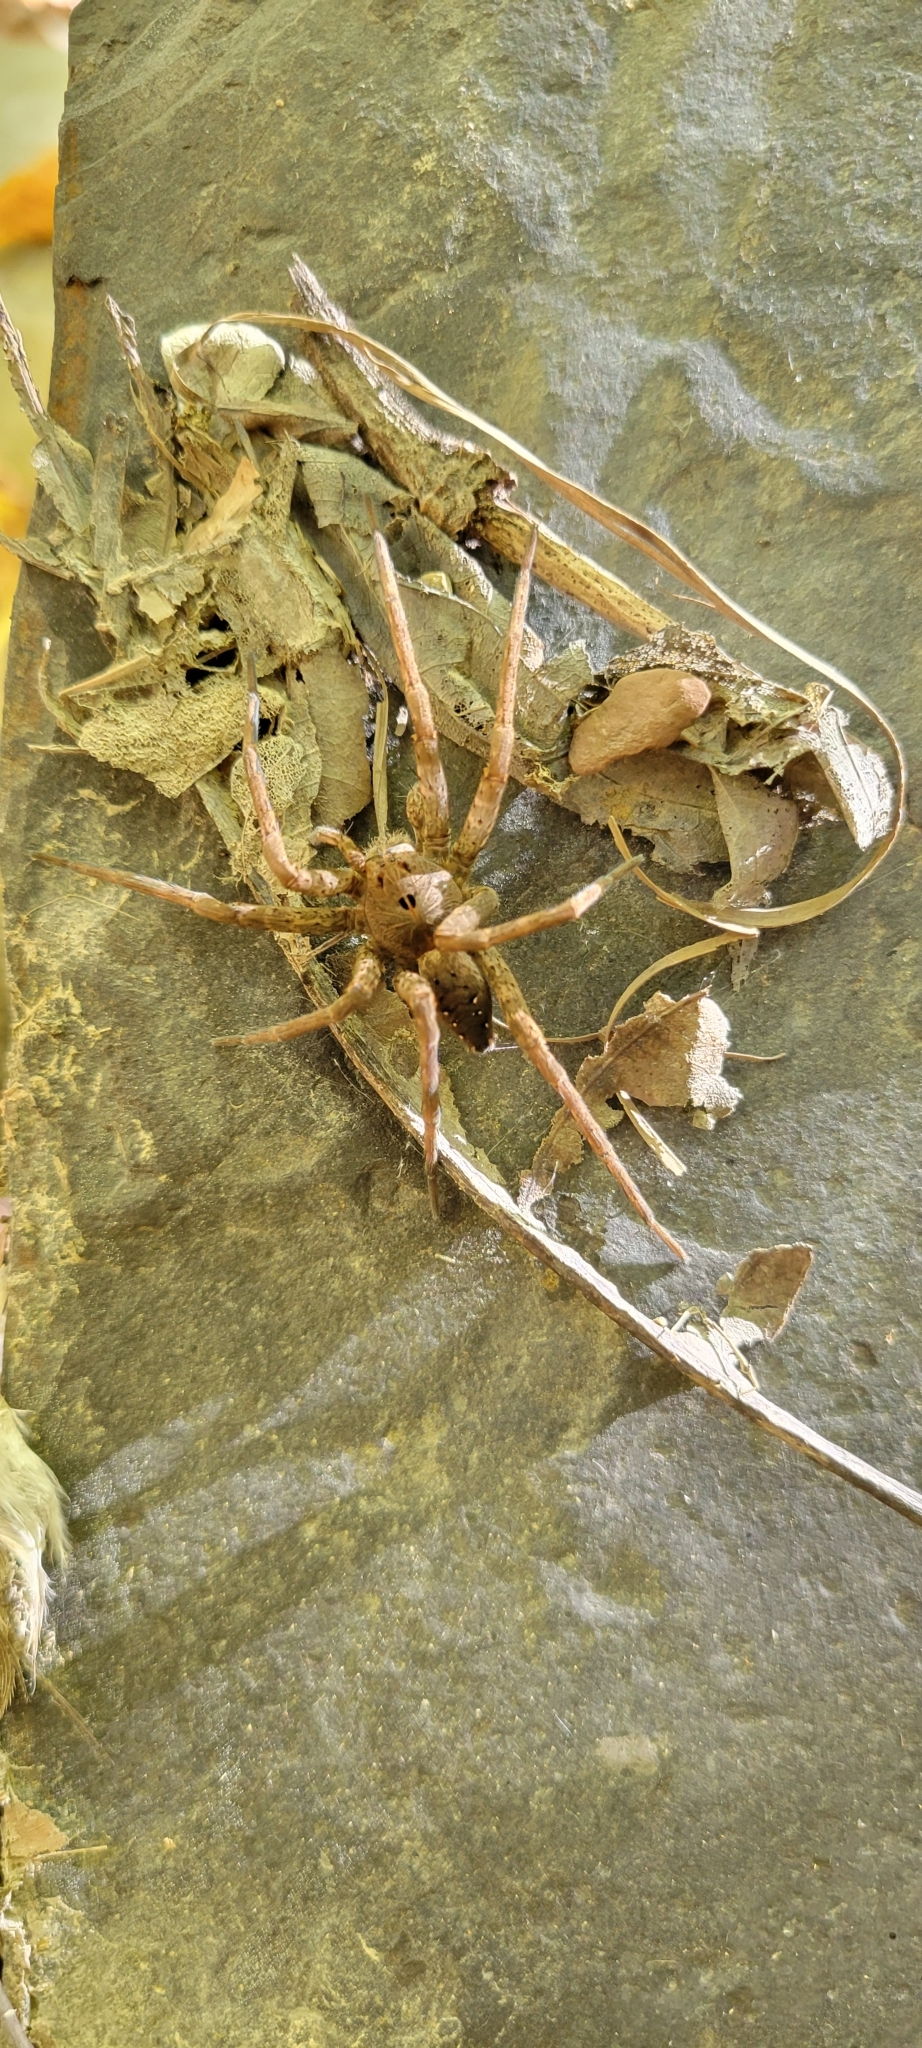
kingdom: Animalia
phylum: Arthropoda
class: Arachnida
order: Araneae
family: Pisauridae
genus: Dolomedes
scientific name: Dolomedes vittatus
